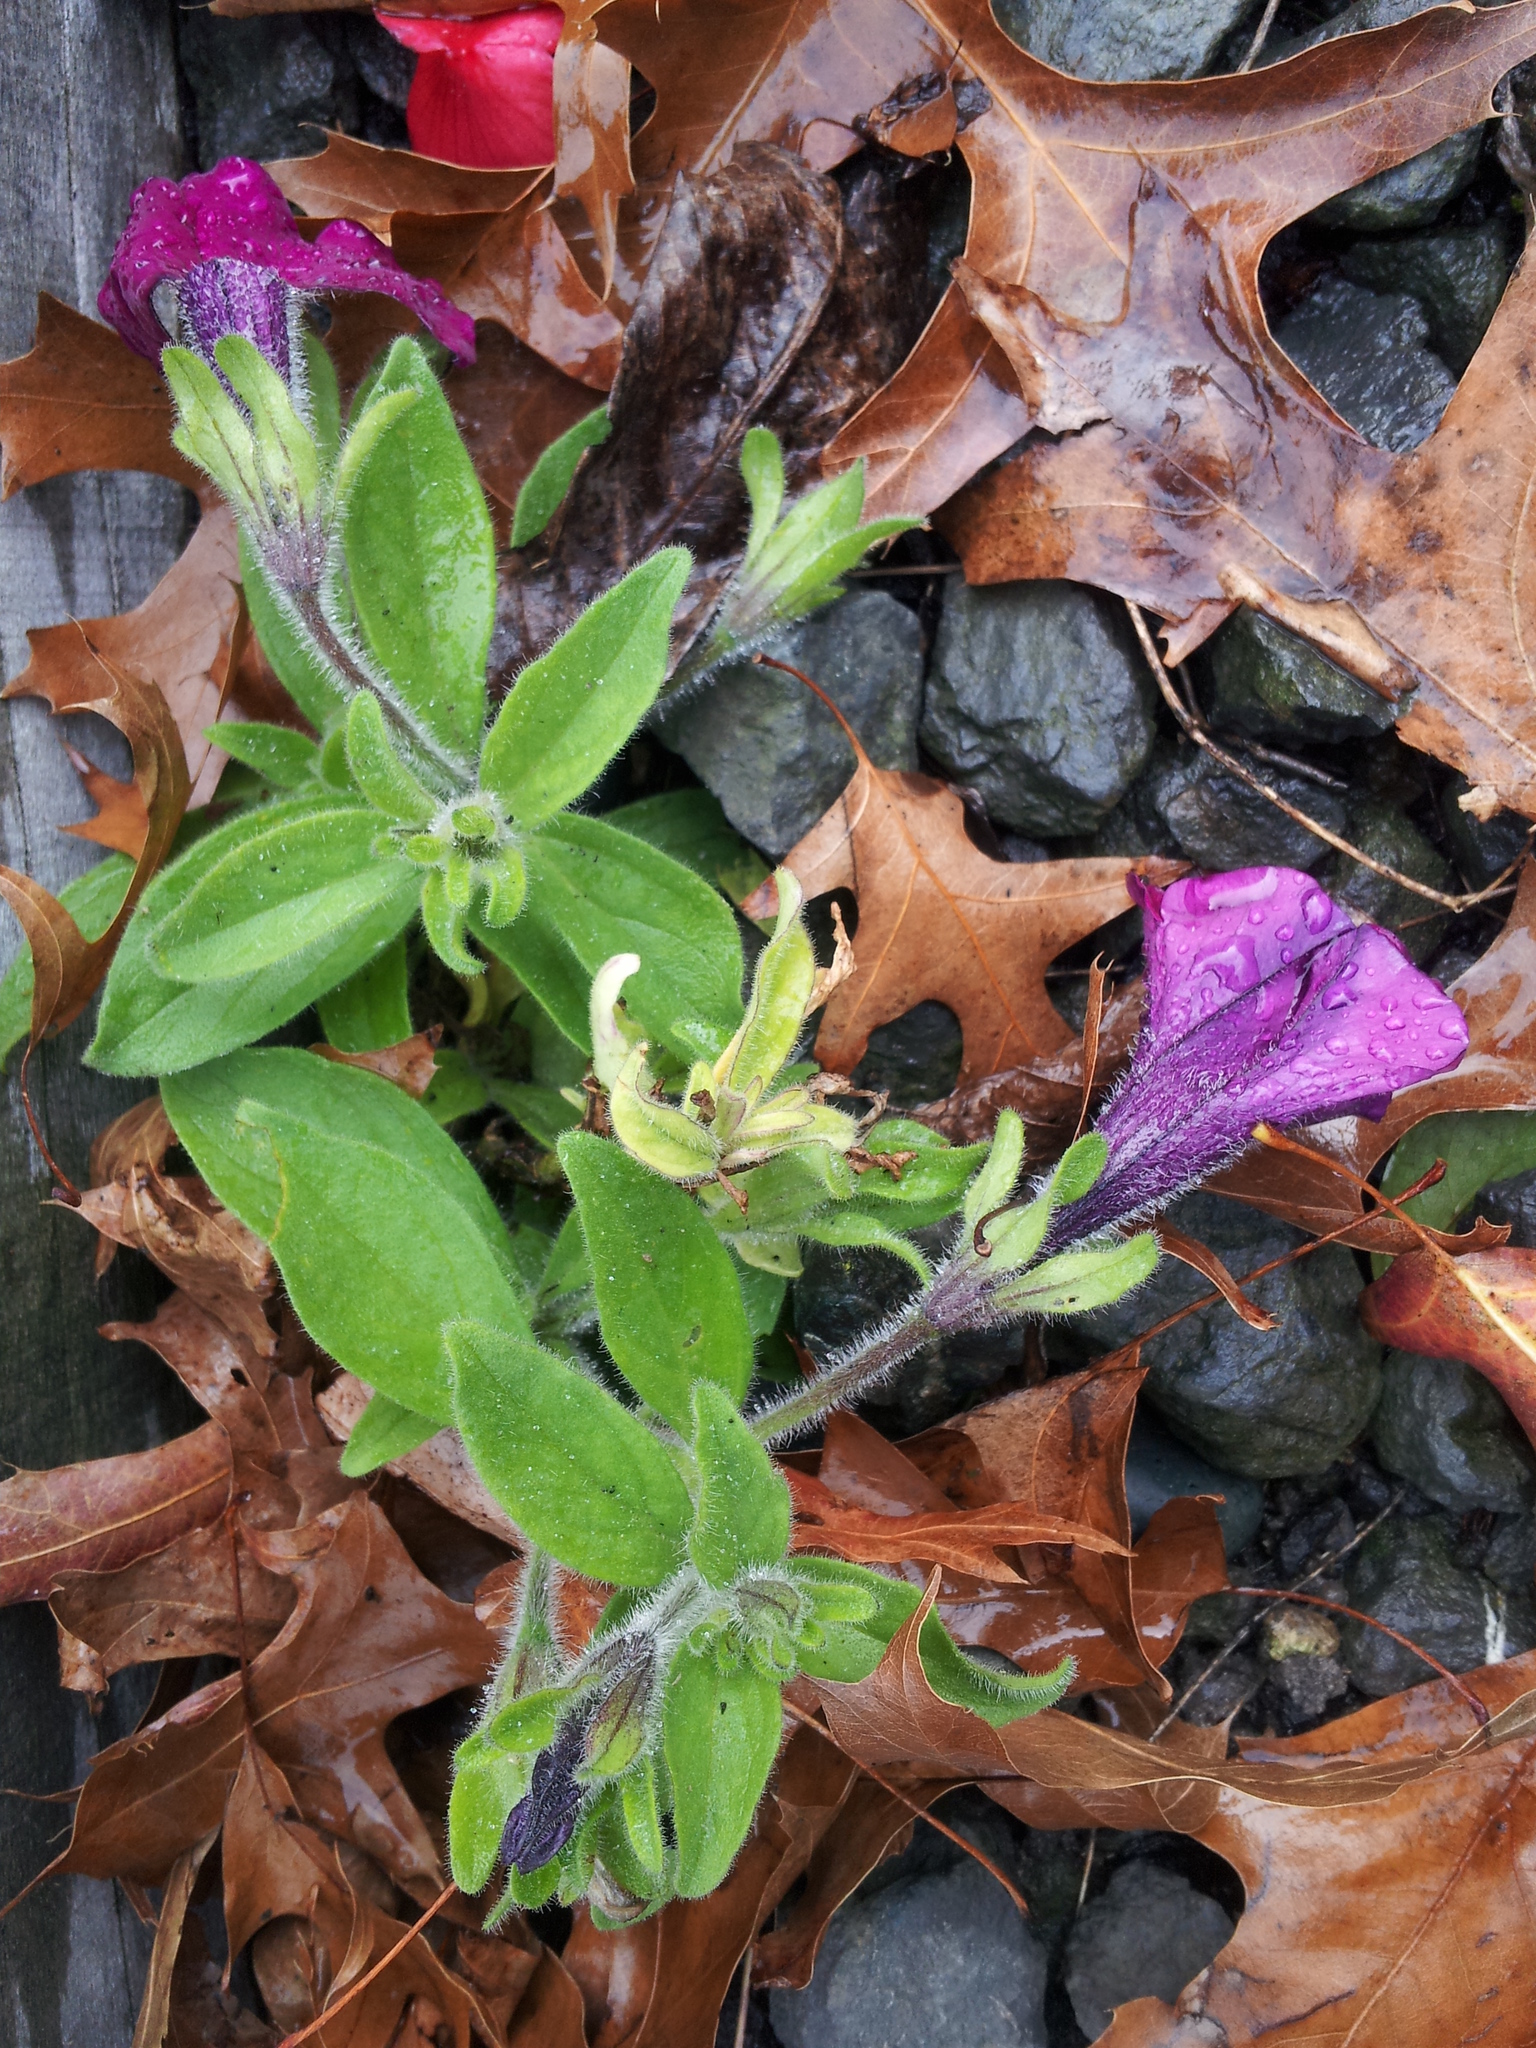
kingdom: Plantae
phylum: Tracheophyta
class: Magnoliopsida
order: Solanales
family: Solanaceae
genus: Petunia
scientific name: Petunia atkinsiana
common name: Petunia
